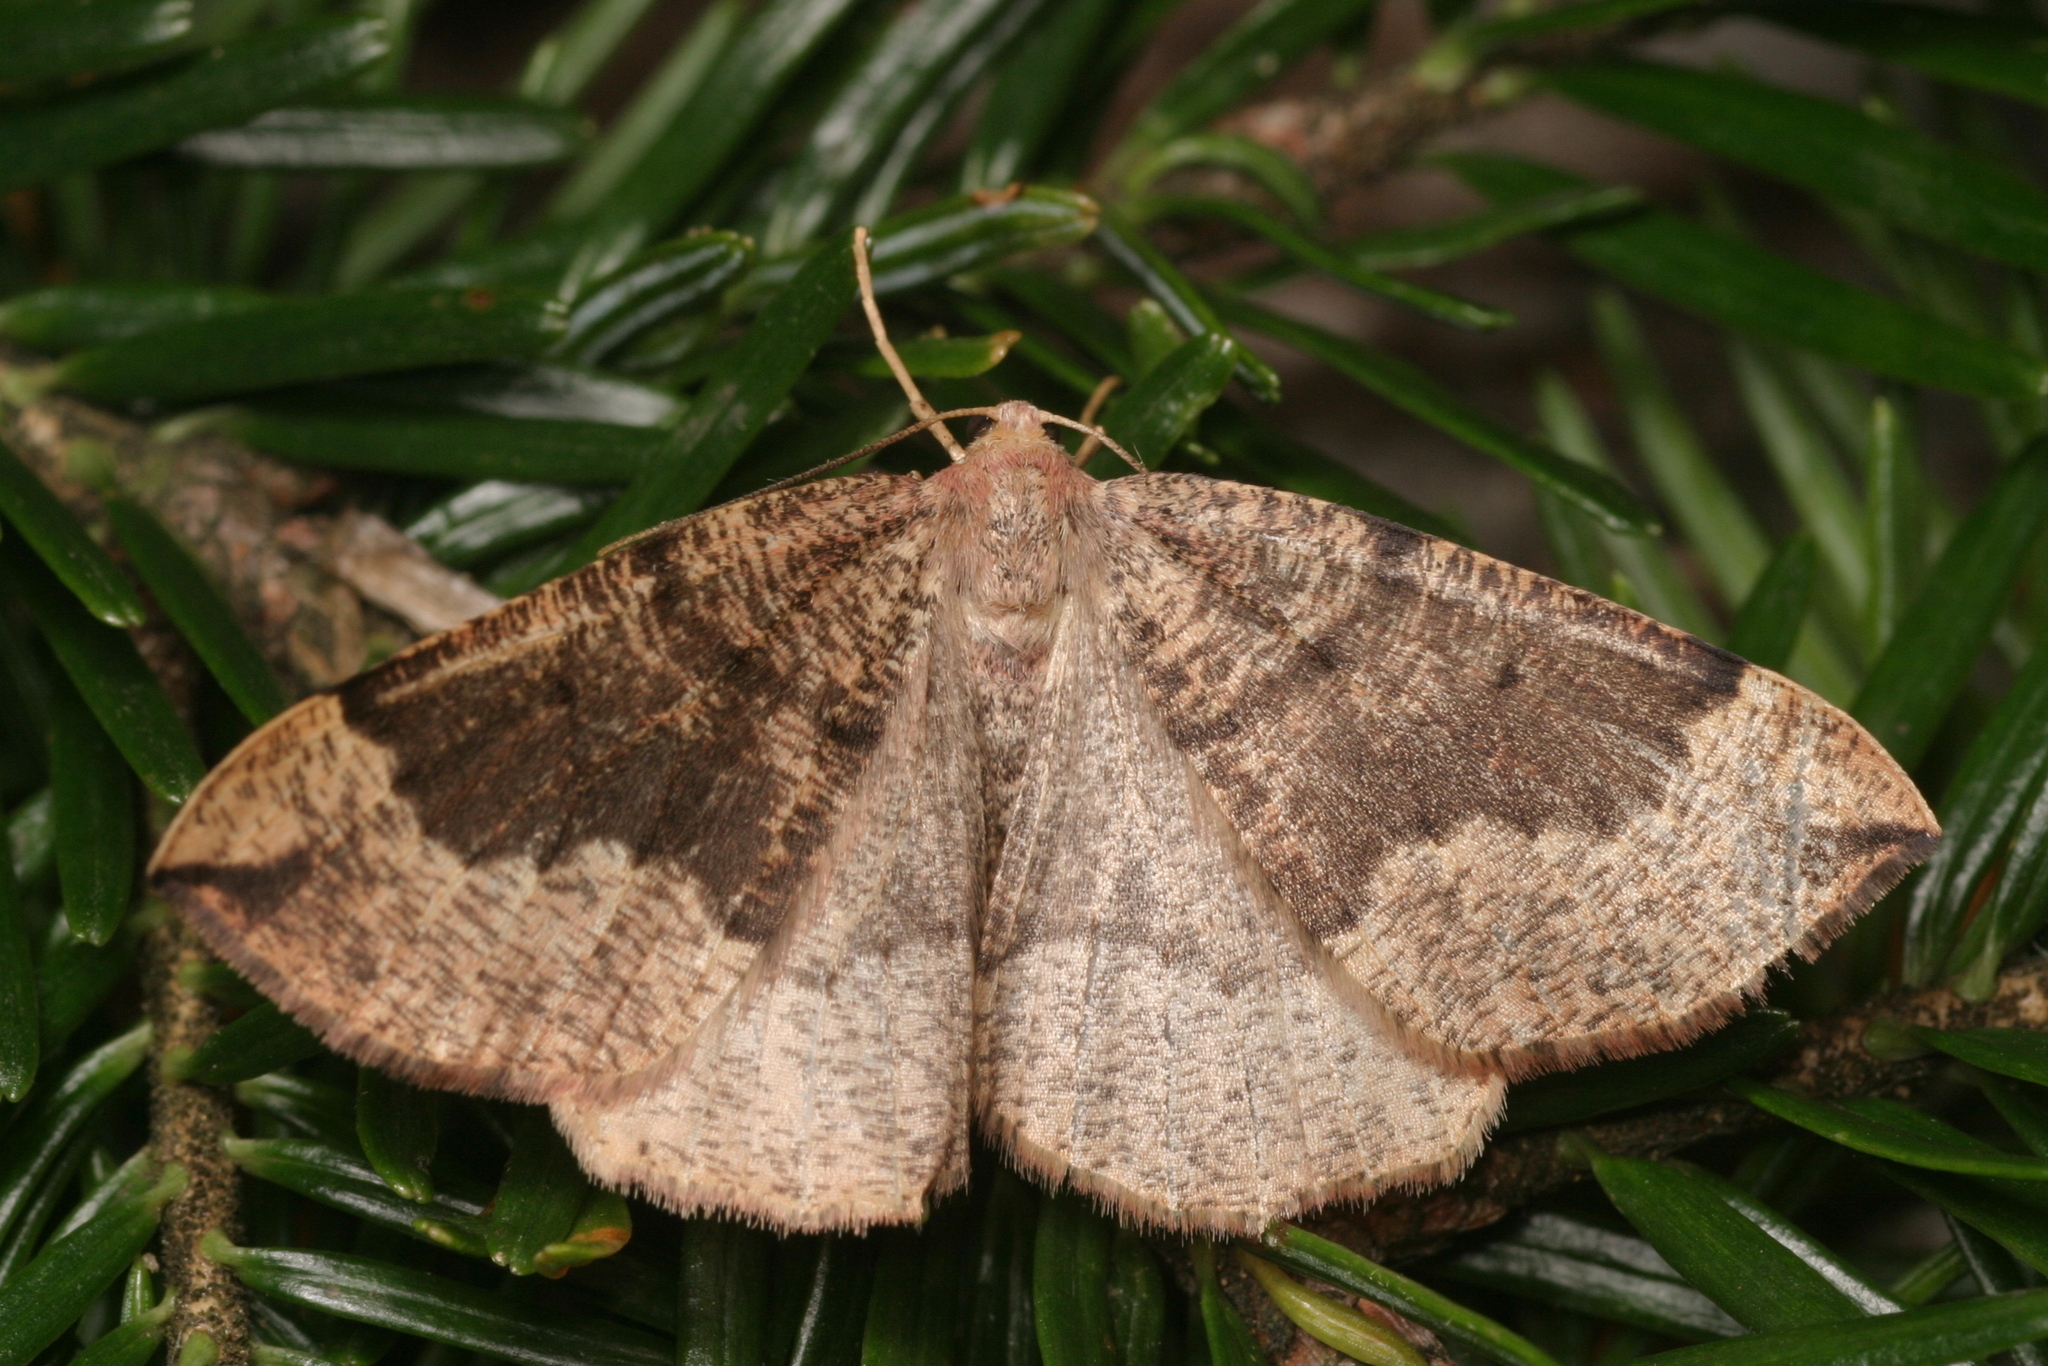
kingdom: Animalia
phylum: Arthropoda
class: Insecta
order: Lepidoptera
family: Geometridae
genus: Pungeleria
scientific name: Pungeleria capreolaria
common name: Banded pine carpet
